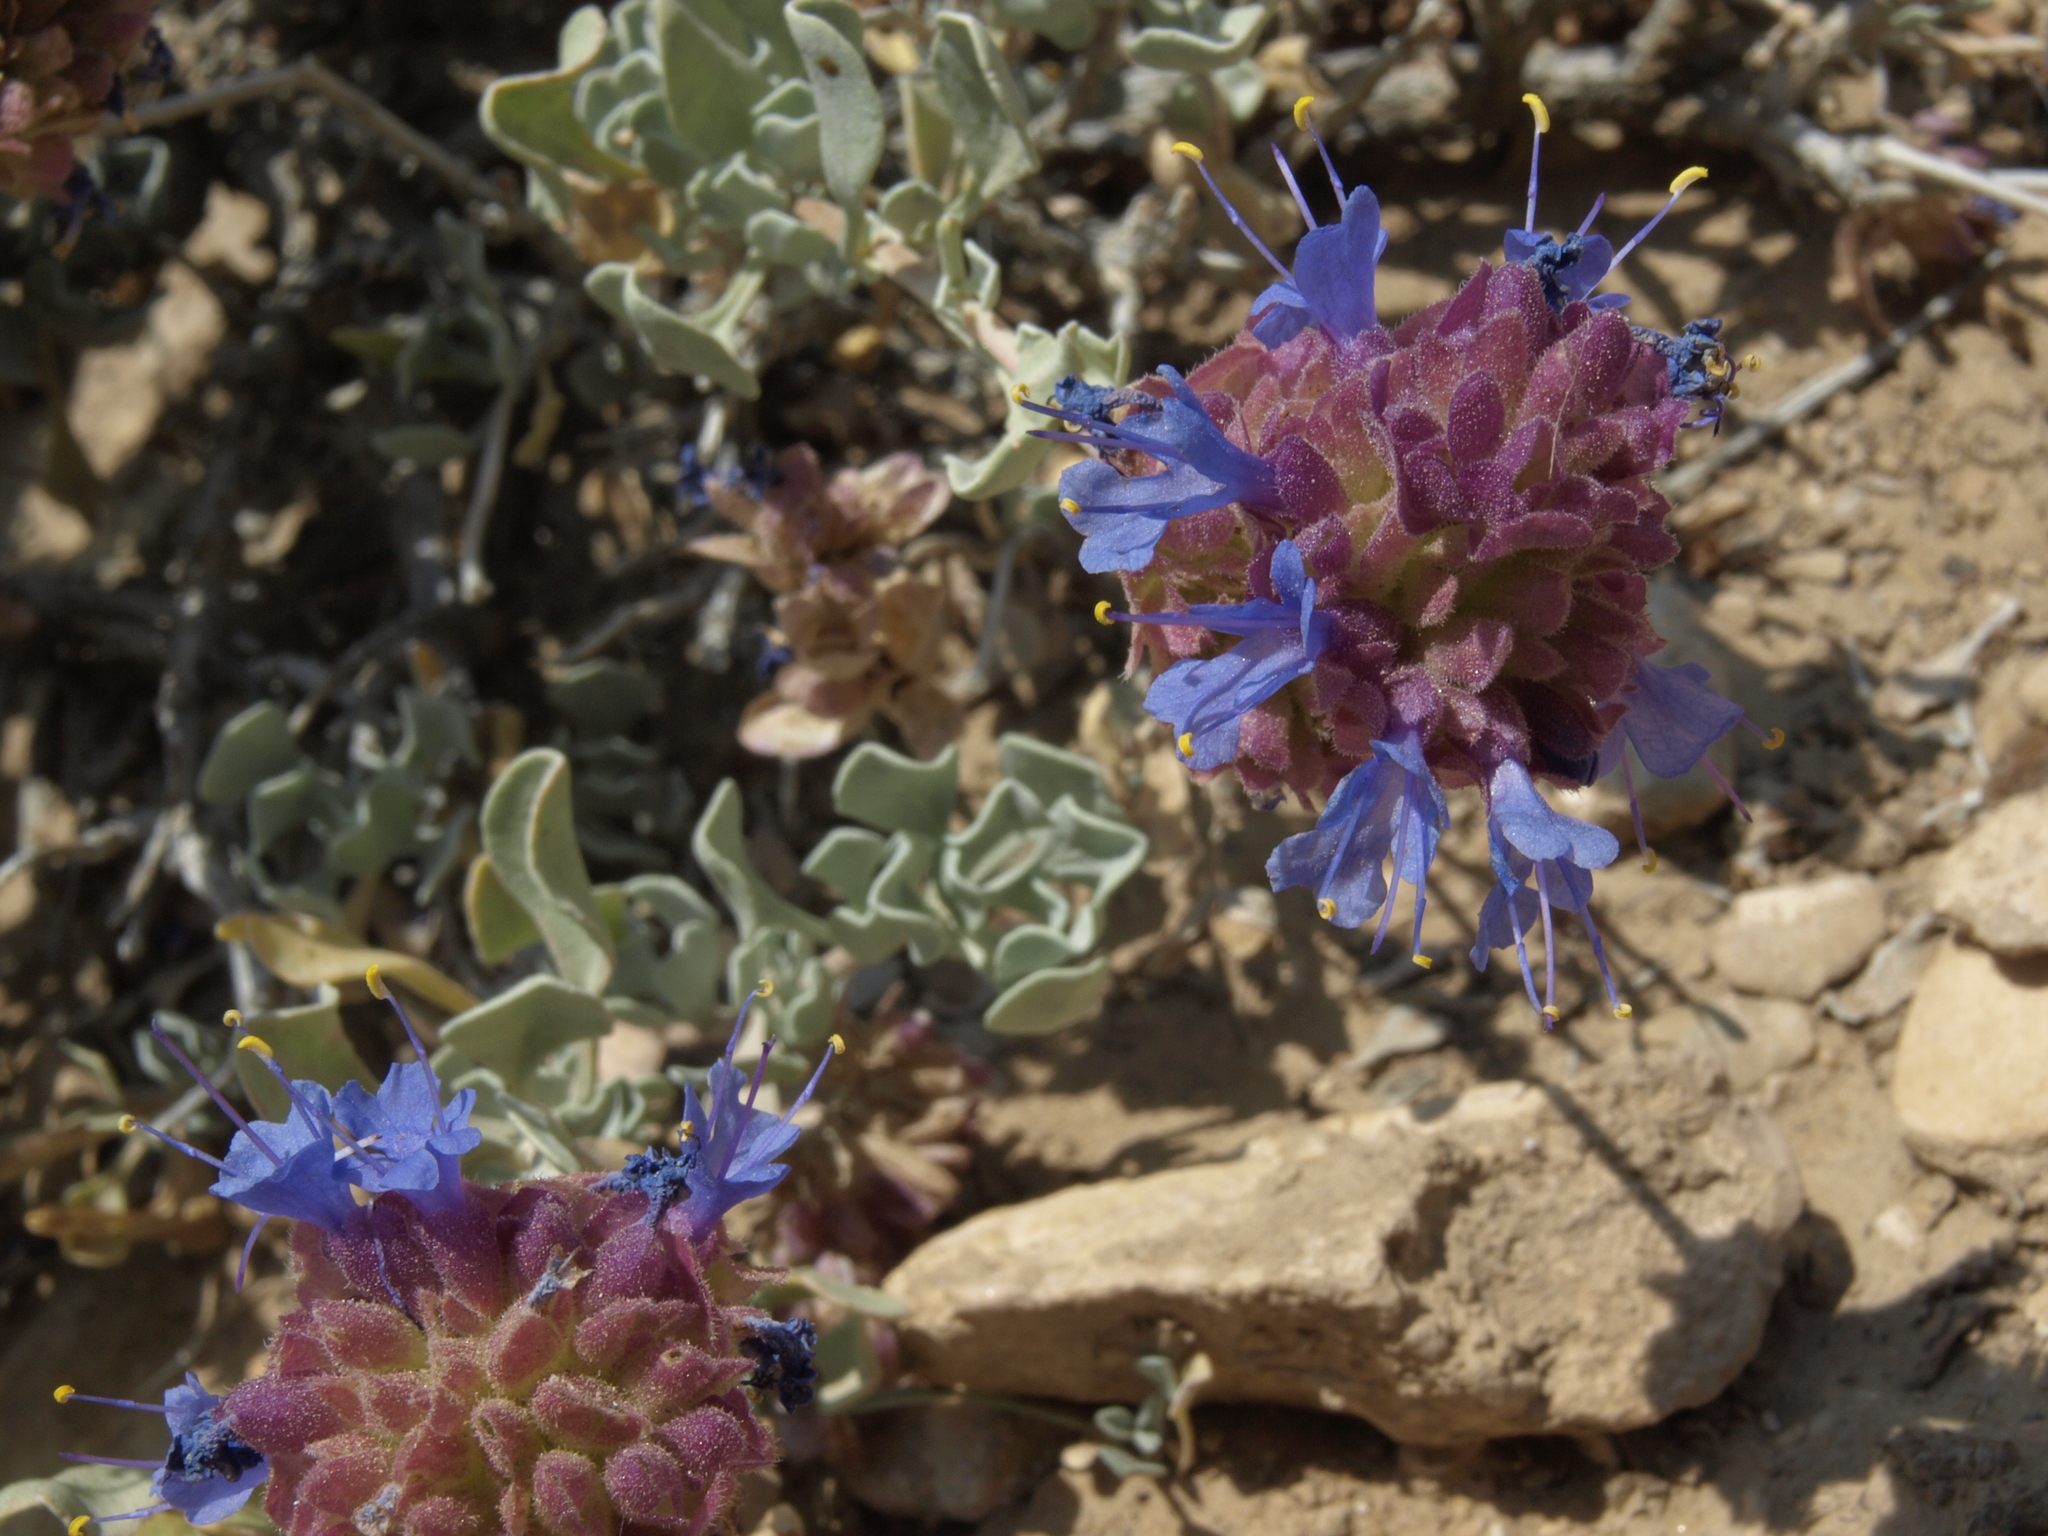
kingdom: Plantae
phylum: Tracheophyta
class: Magnoliopsida
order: Lamiales
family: Lamiaceae
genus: Salvia
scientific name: Salvia dorrii
